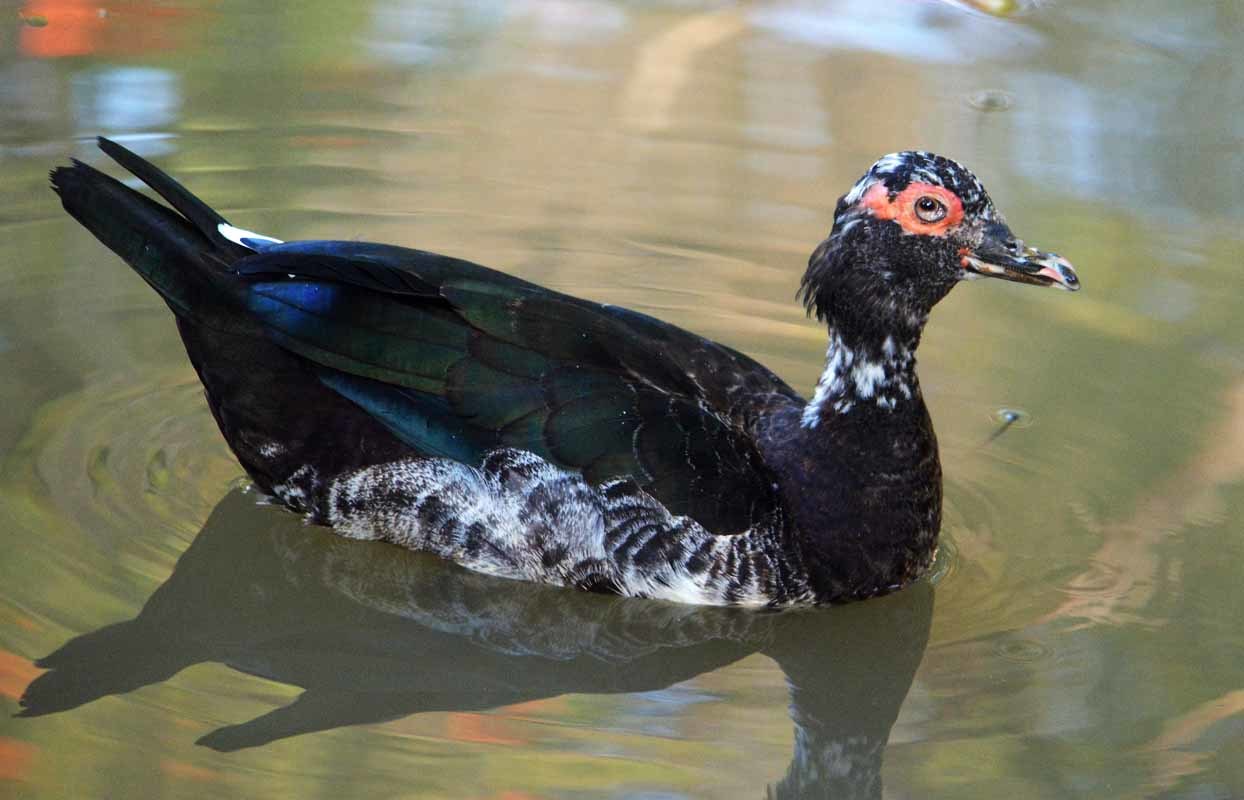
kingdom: Animalia
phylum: Chordata
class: Aves
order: Anseriformes
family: Anatidae
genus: Cairina
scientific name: Cairina moschata
